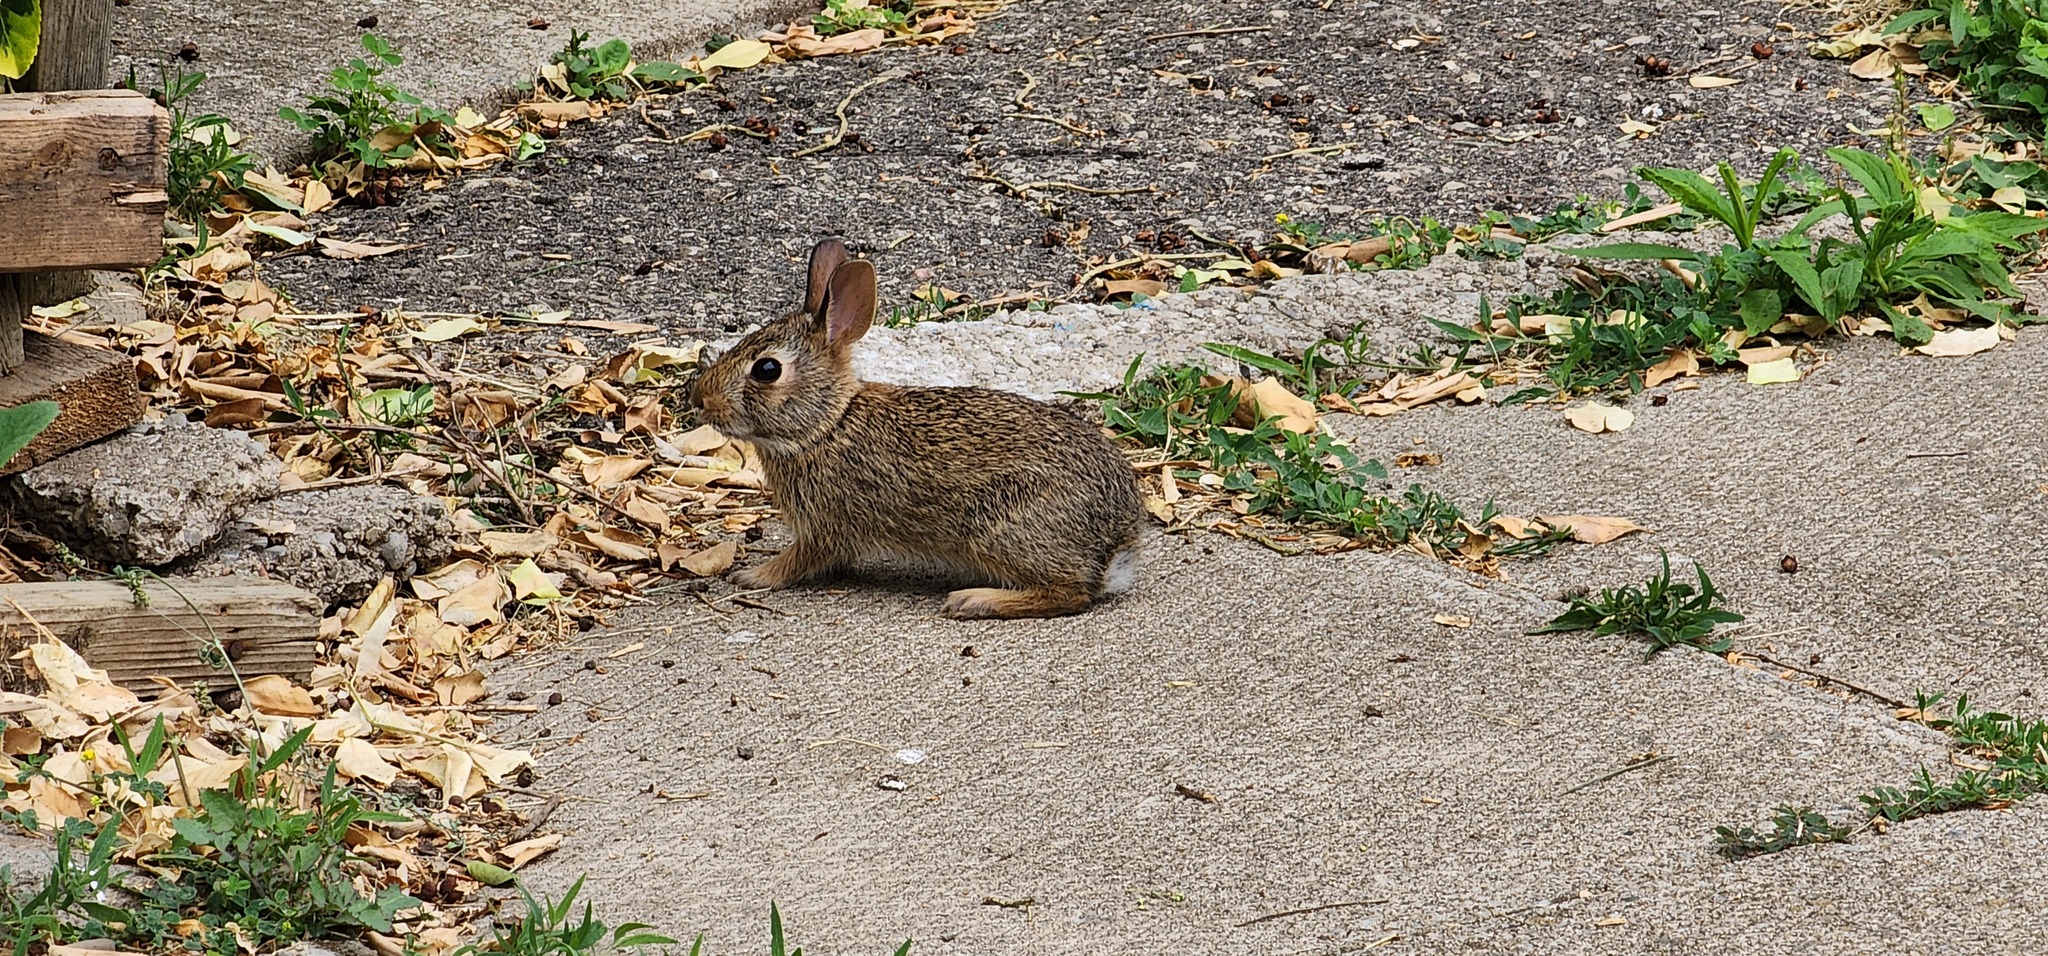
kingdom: Animalia
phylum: Chordata
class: Mammalia
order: Lagomorpha
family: Leporidae
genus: Sylvilagus
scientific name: Sylvilagus floridanus
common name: Eastern cottontail
